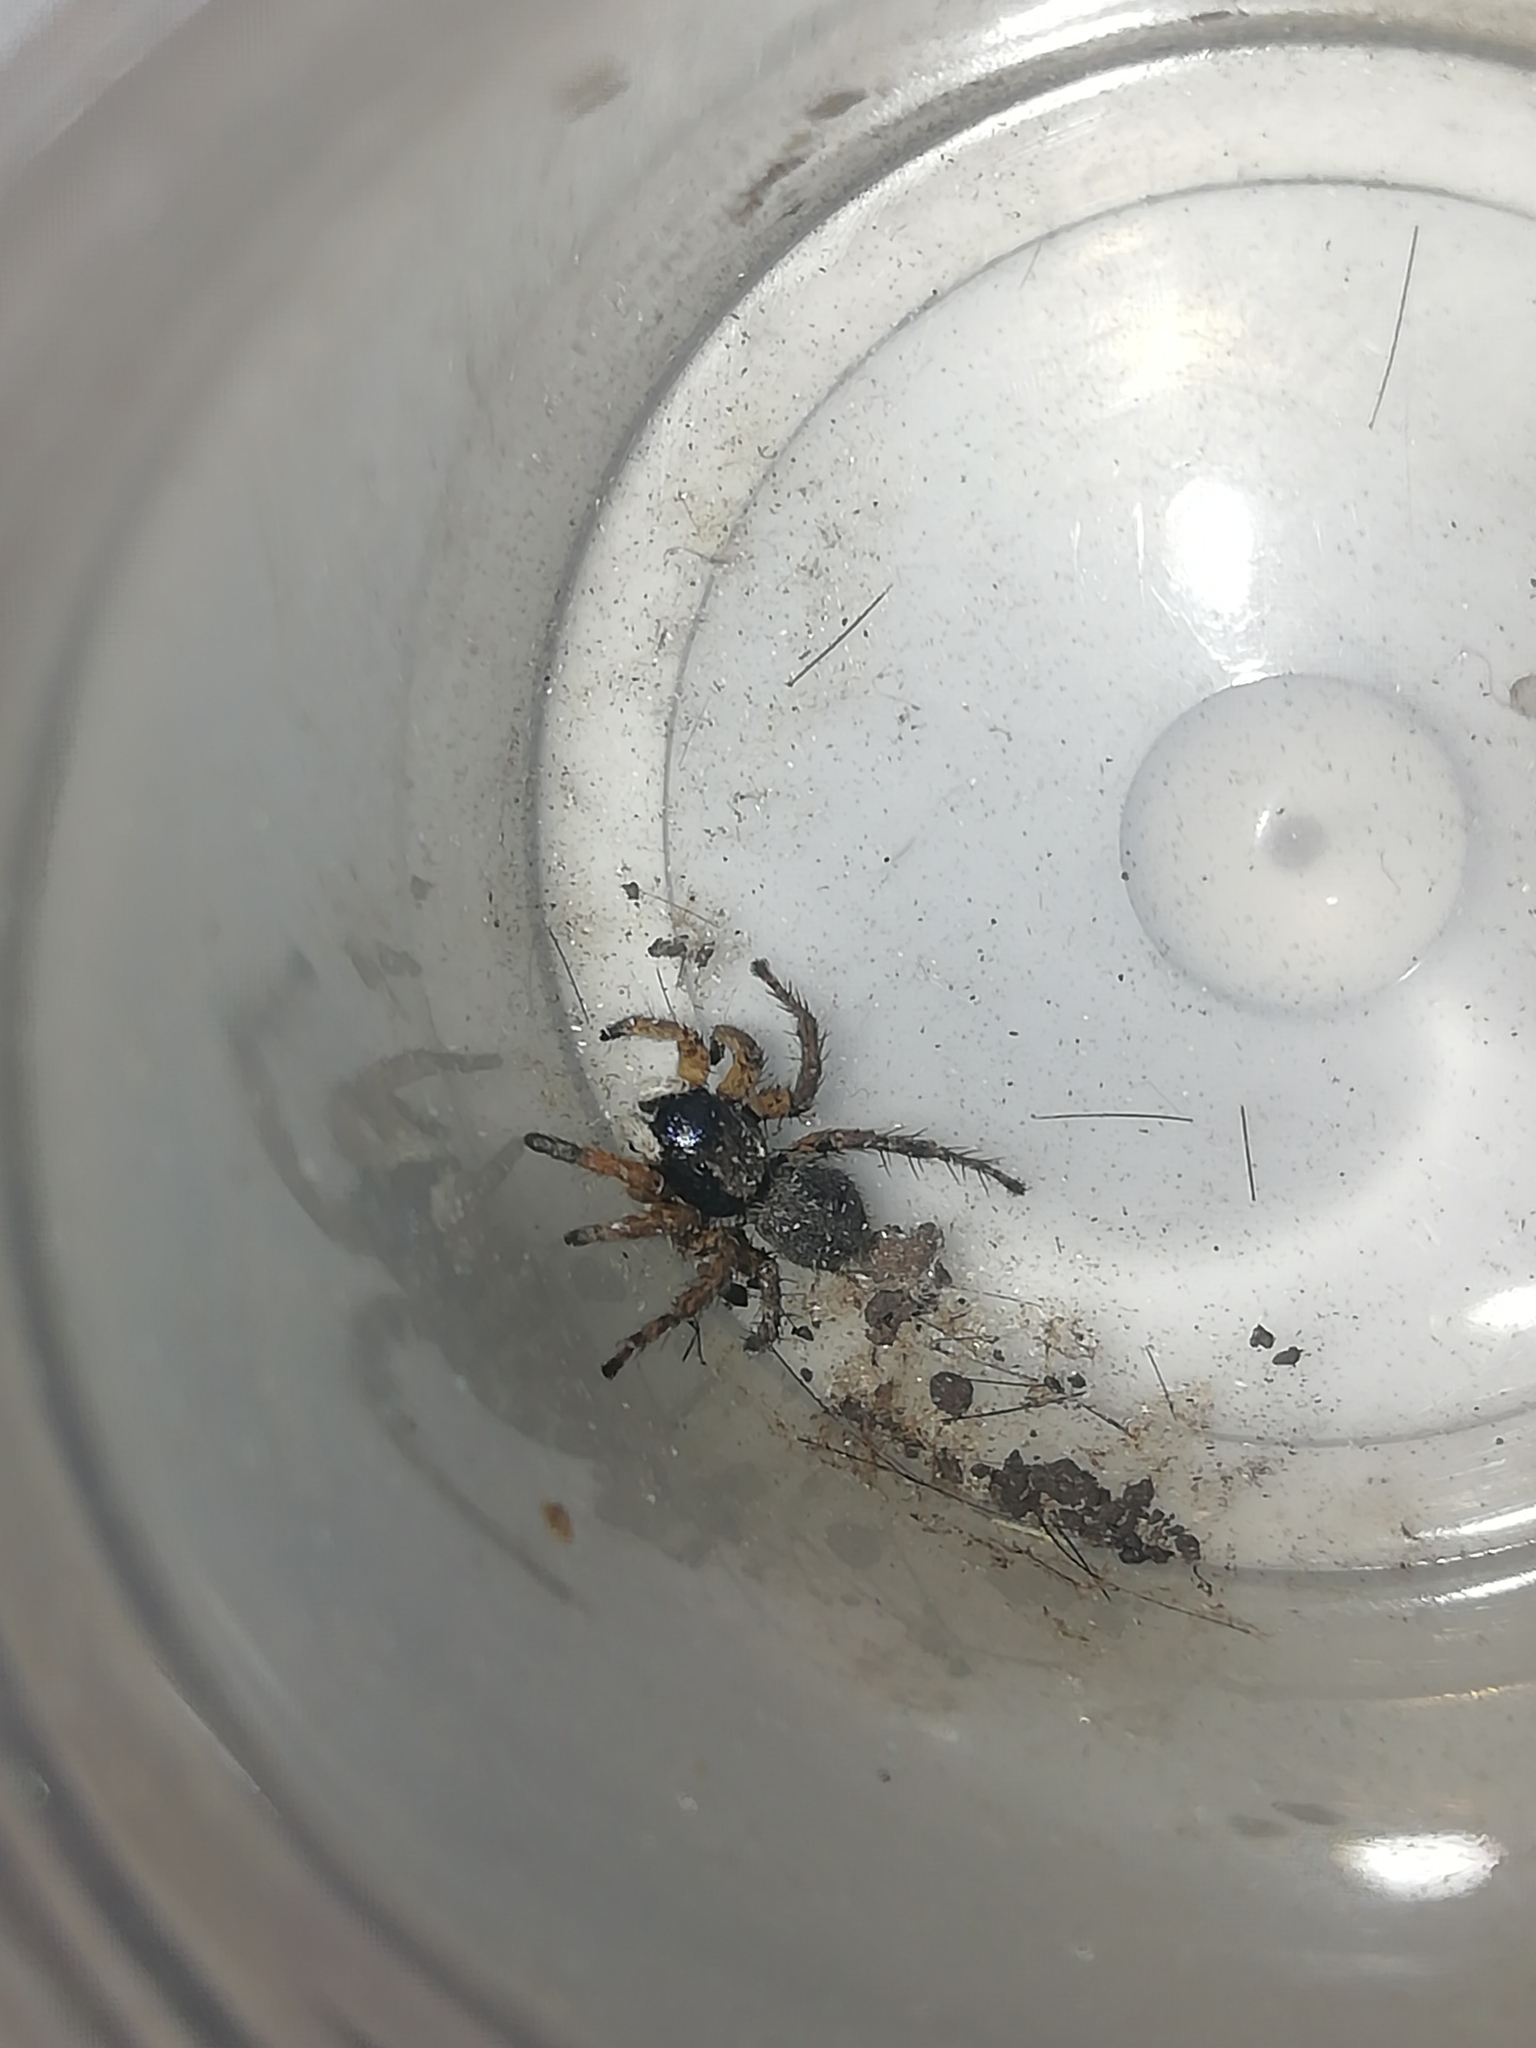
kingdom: Animalia
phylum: Arthropoda
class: Arachnida
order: Araneae
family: Salticidae
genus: Asianellus
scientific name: Asianellus festivus
